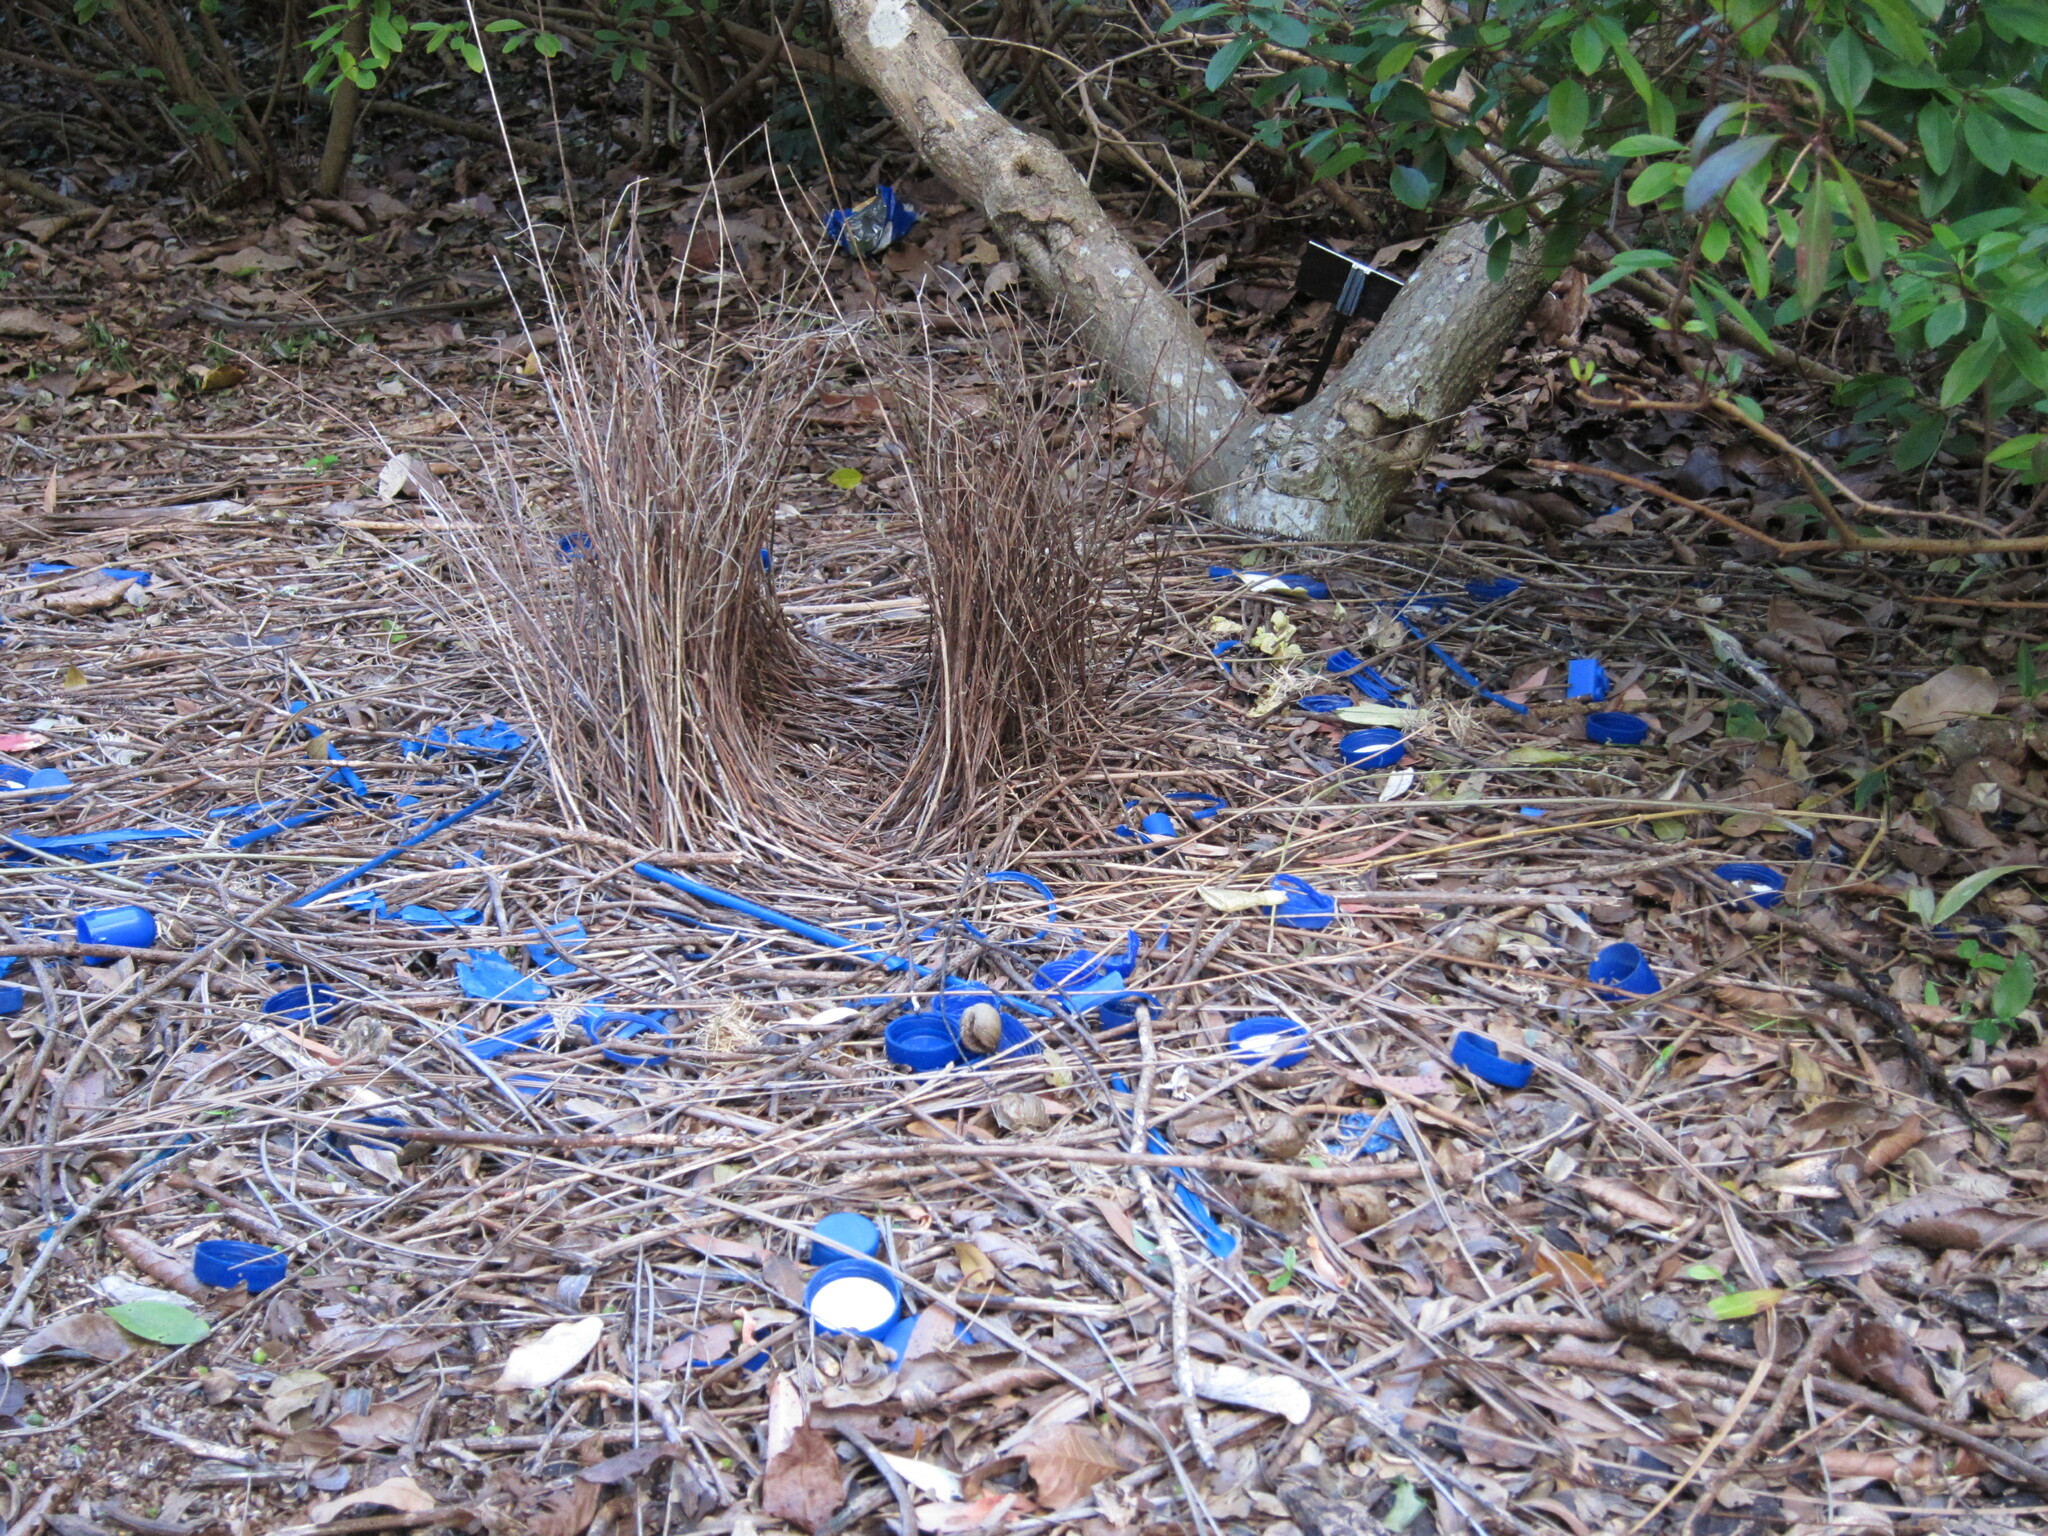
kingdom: Animalia
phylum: Chordata
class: Aves
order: Passeriformes
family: Ptilonorhynchidae
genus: Ptilonorhynchus
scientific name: Ptilonorhynchus violaceus
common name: Satin bowerbird
